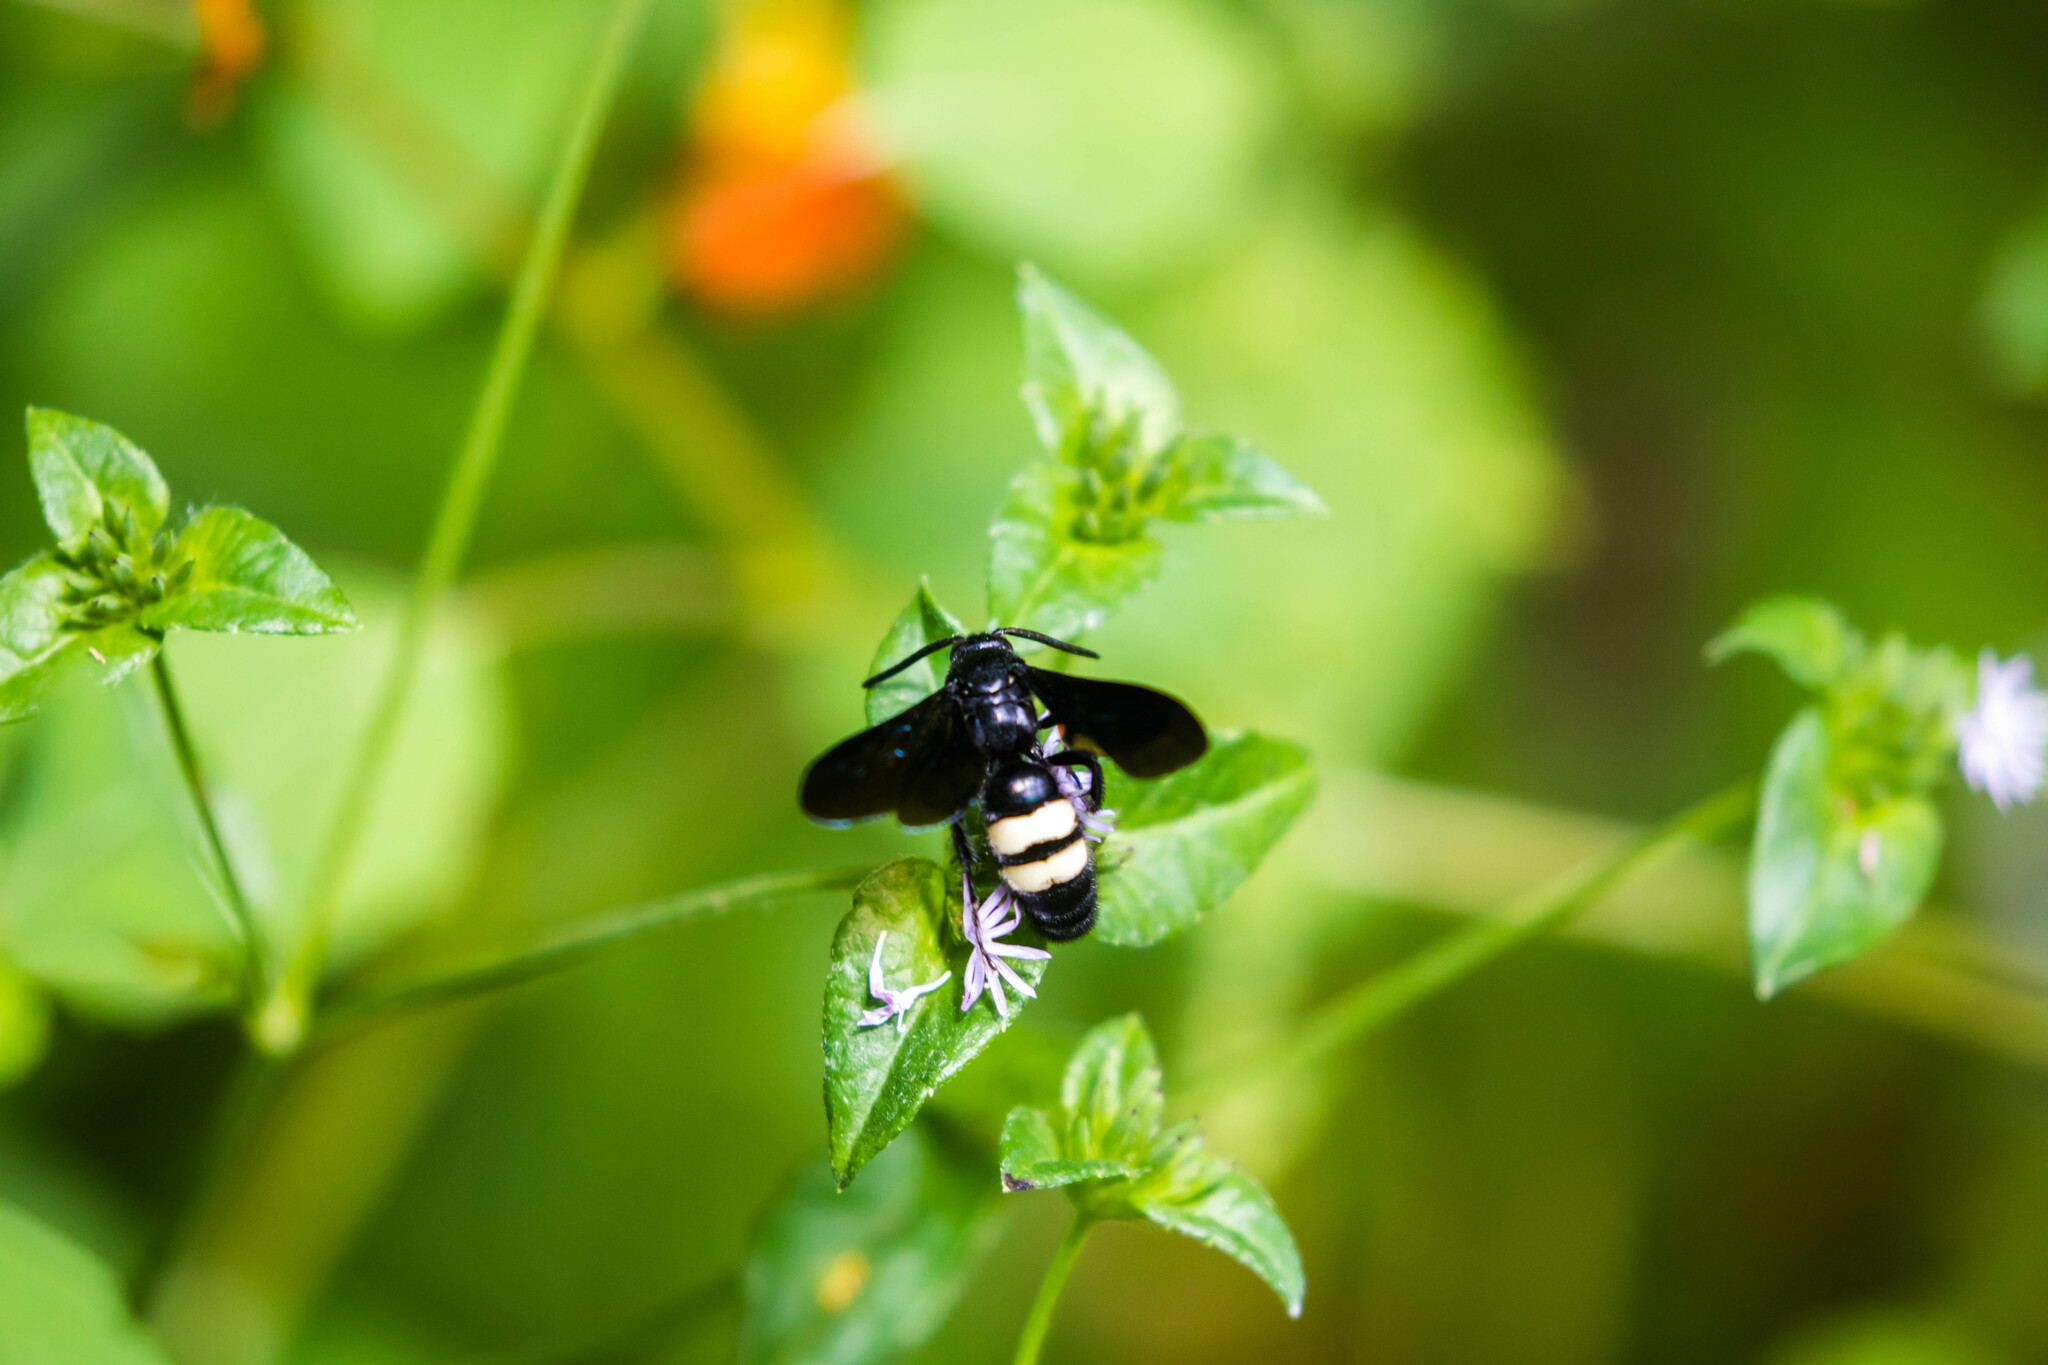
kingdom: Animalia
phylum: Arthropoda
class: Insecta
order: Hymenoptera
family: Scoliidae
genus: Scolia
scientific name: Scolia bicincta
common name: Double-banded scoliid wasp
